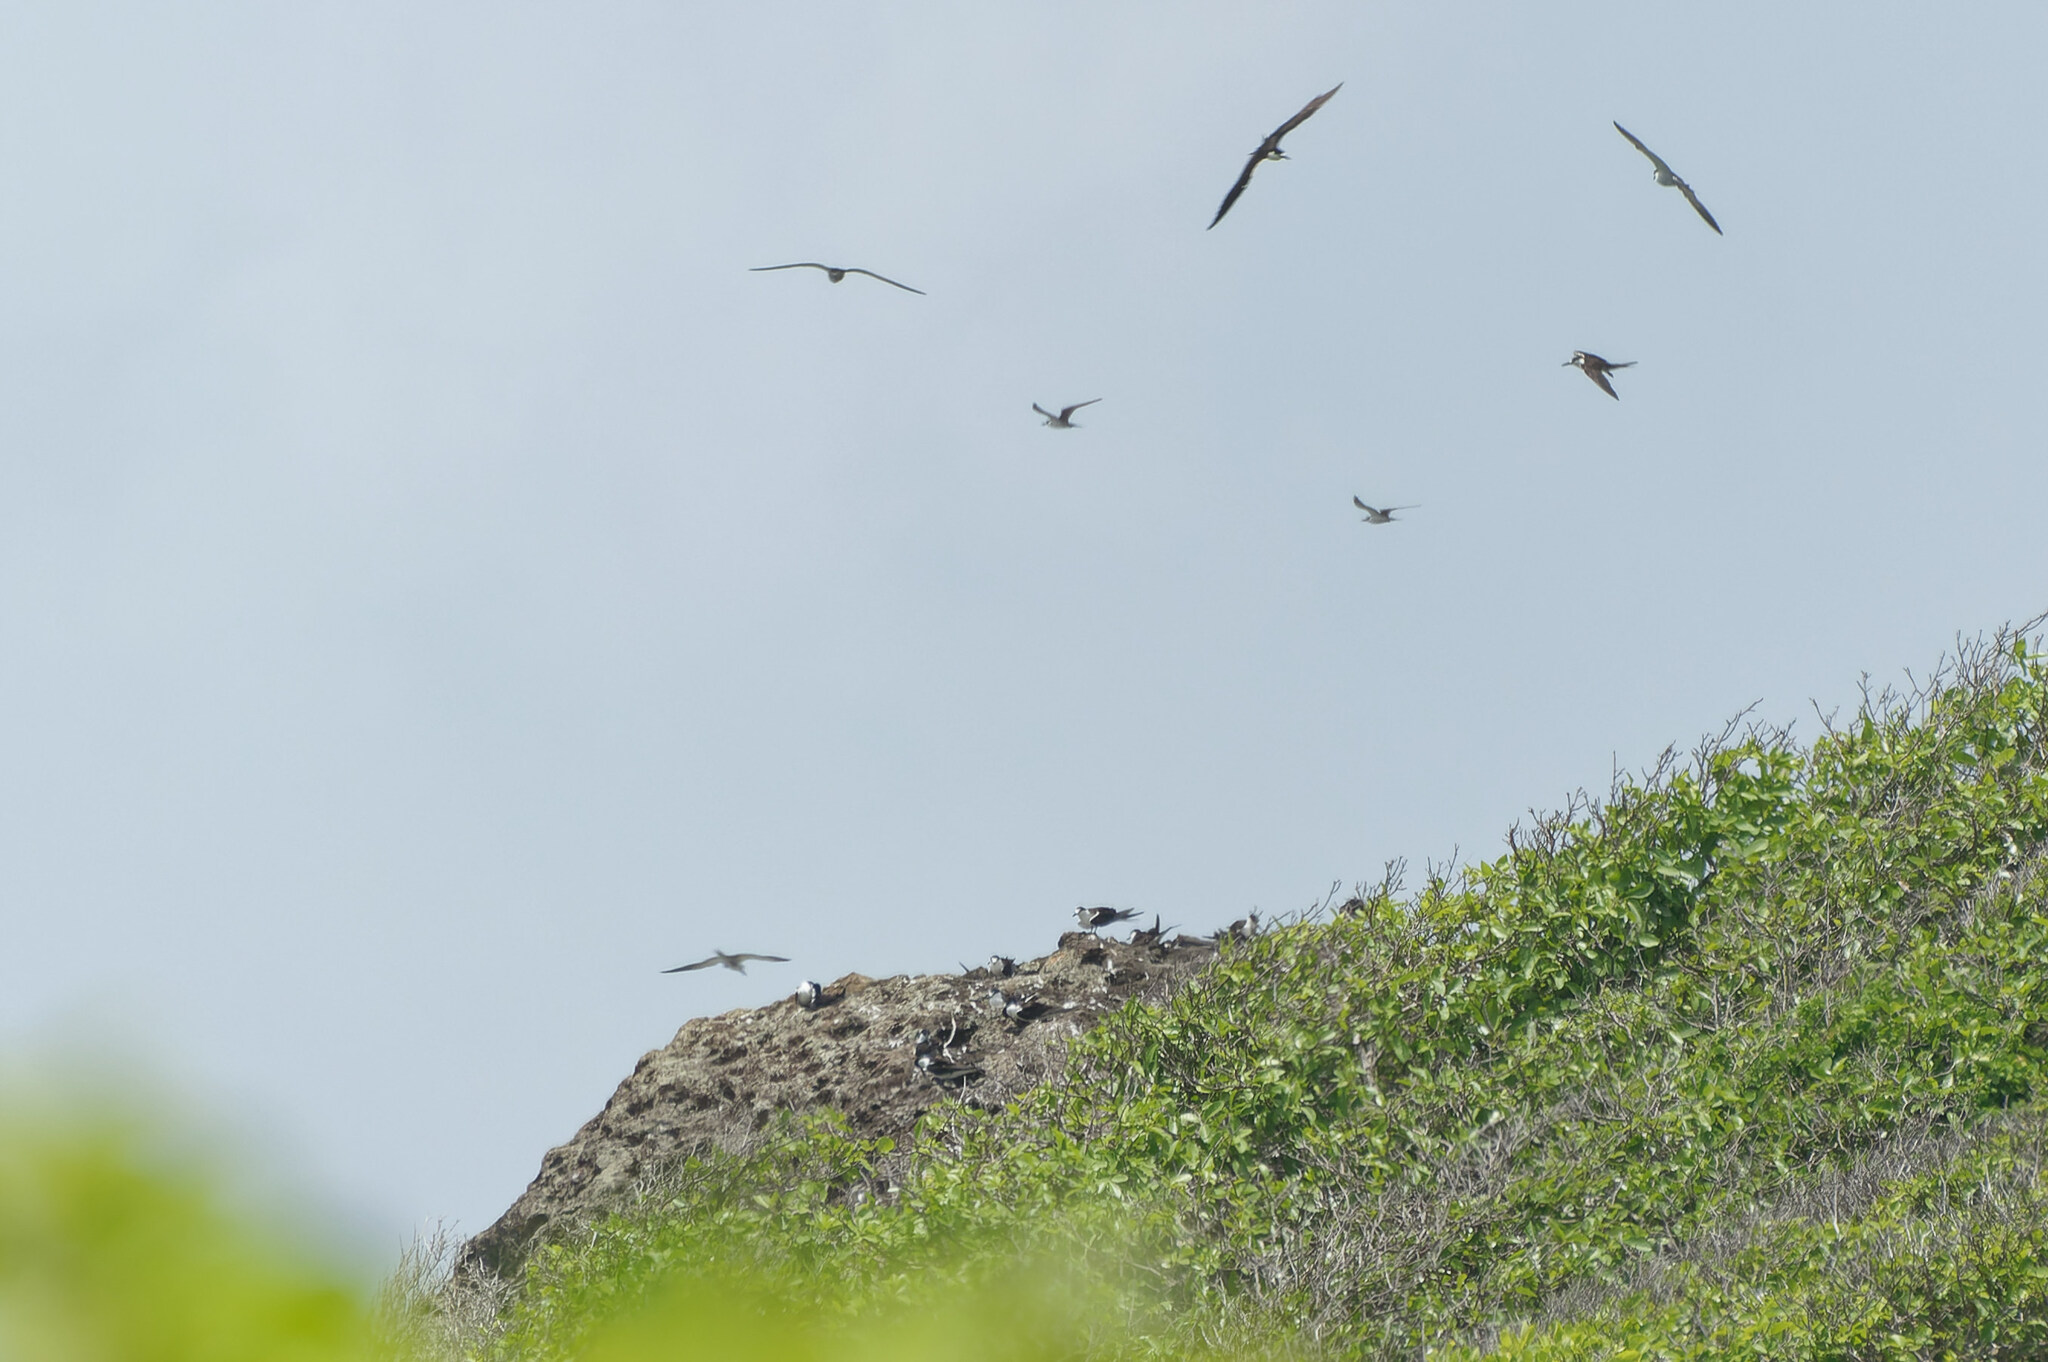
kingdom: Animalia
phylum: Chordata
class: Aves
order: Charadriiformes
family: Laridae
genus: Onychoprion
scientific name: Onychoprion fuscatus
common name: Sooty tern
